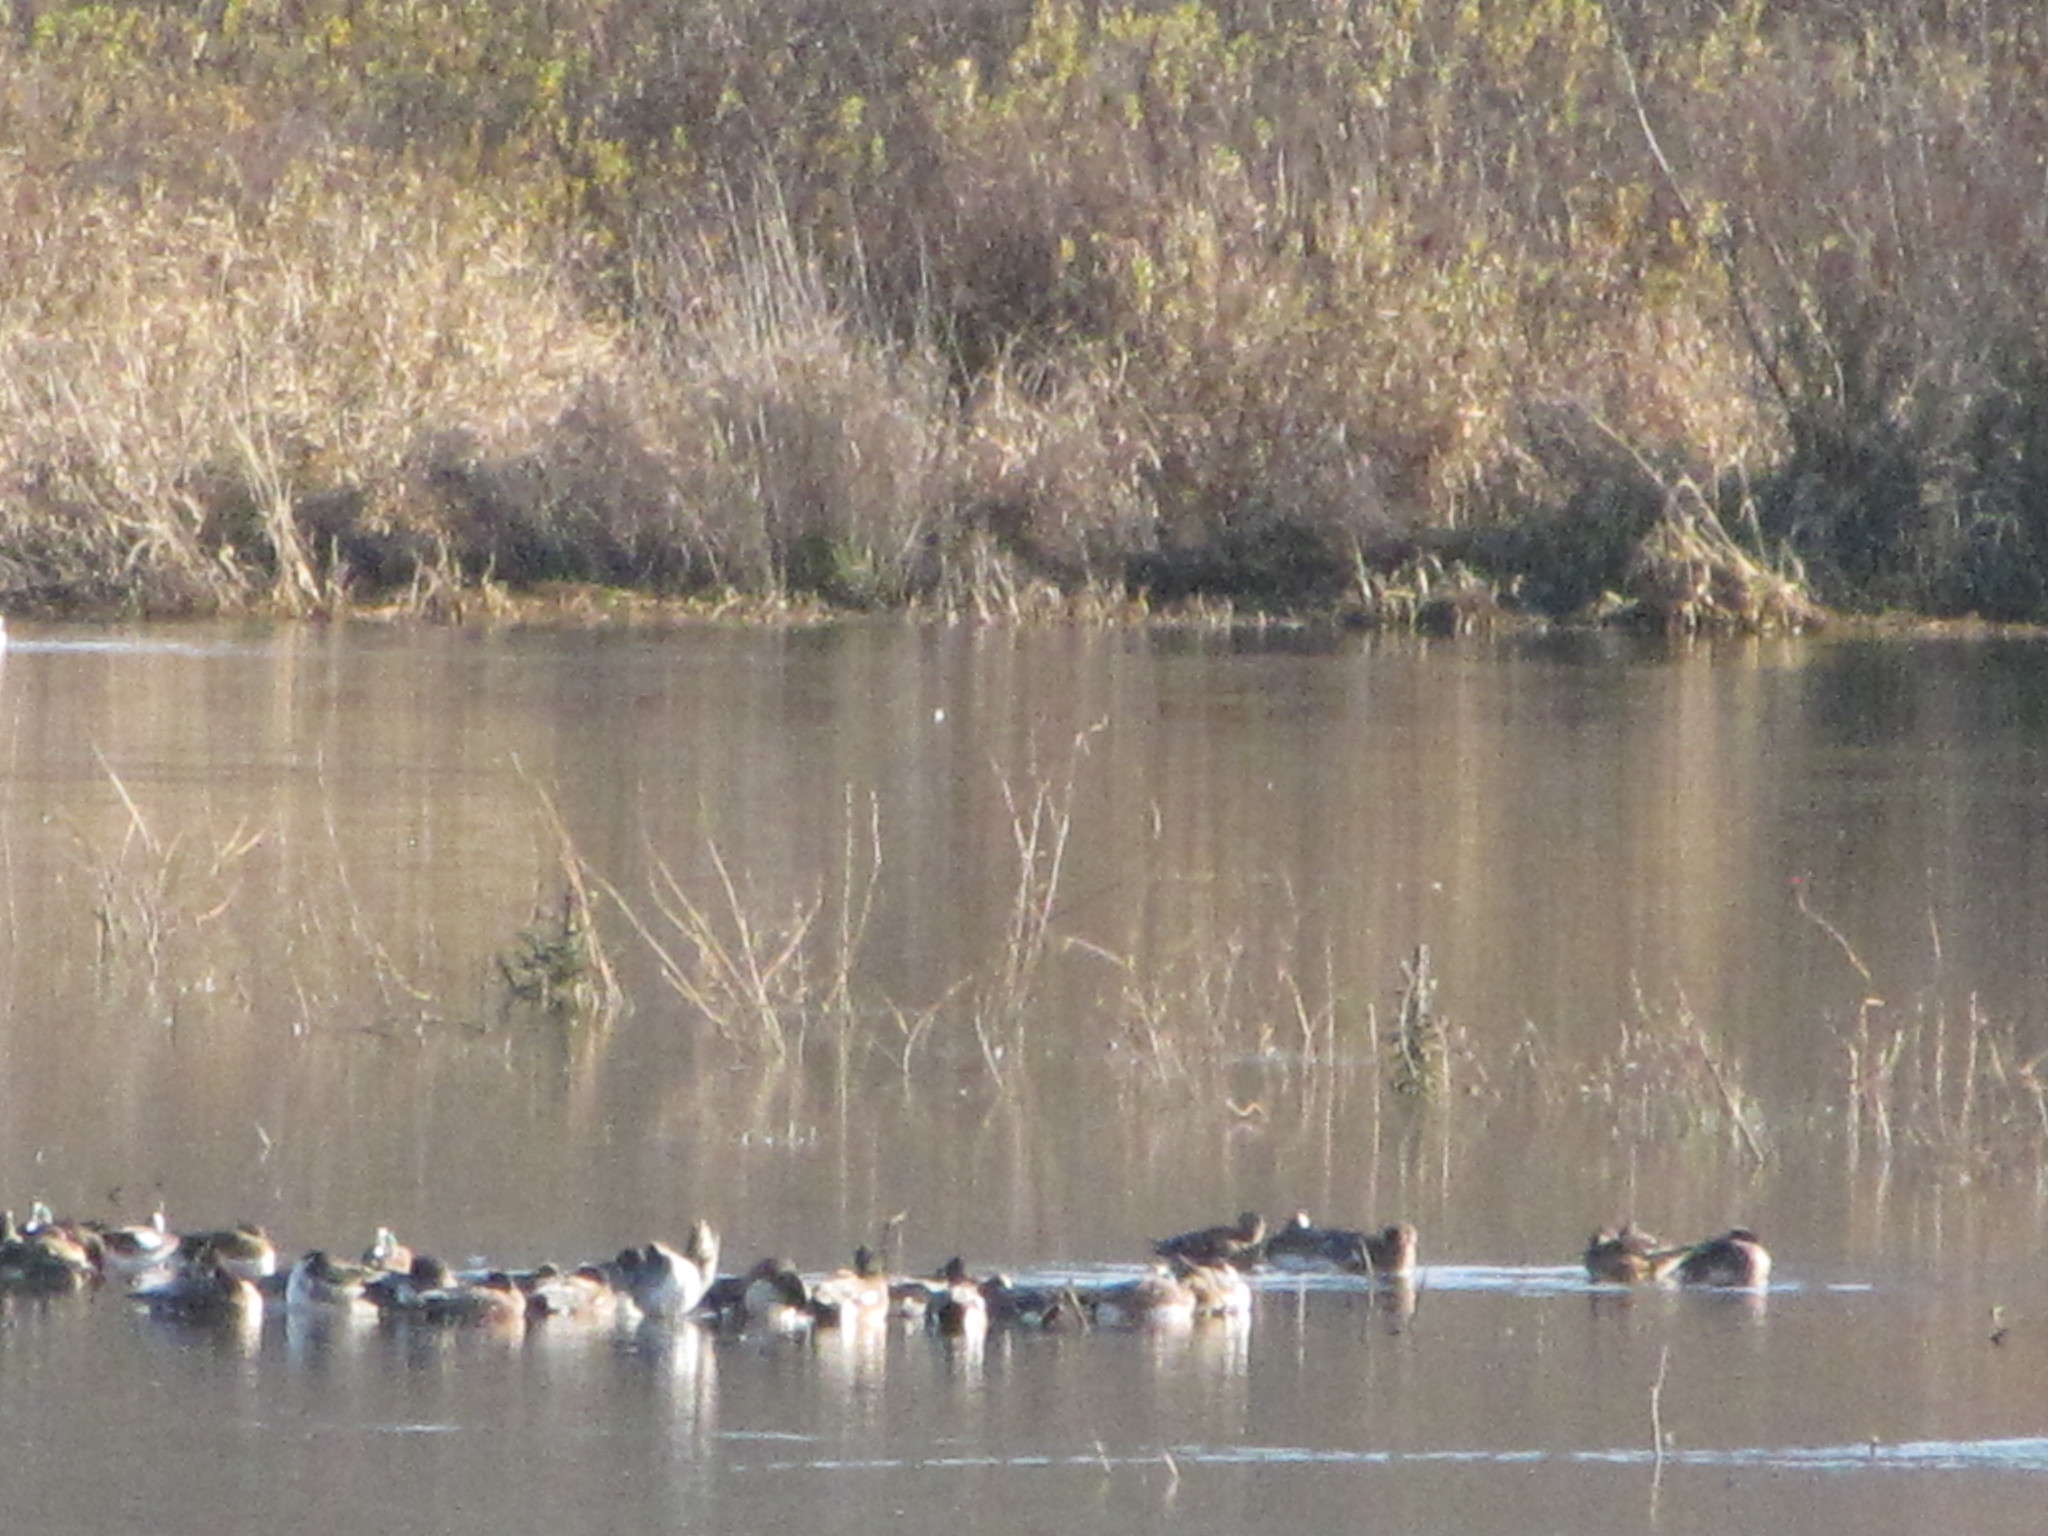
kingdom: Animalia
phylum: Chordata
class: Aves
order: Anseriformes
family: Anatidae
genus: Mareca
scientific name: Mareca americana
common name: American wigeon
